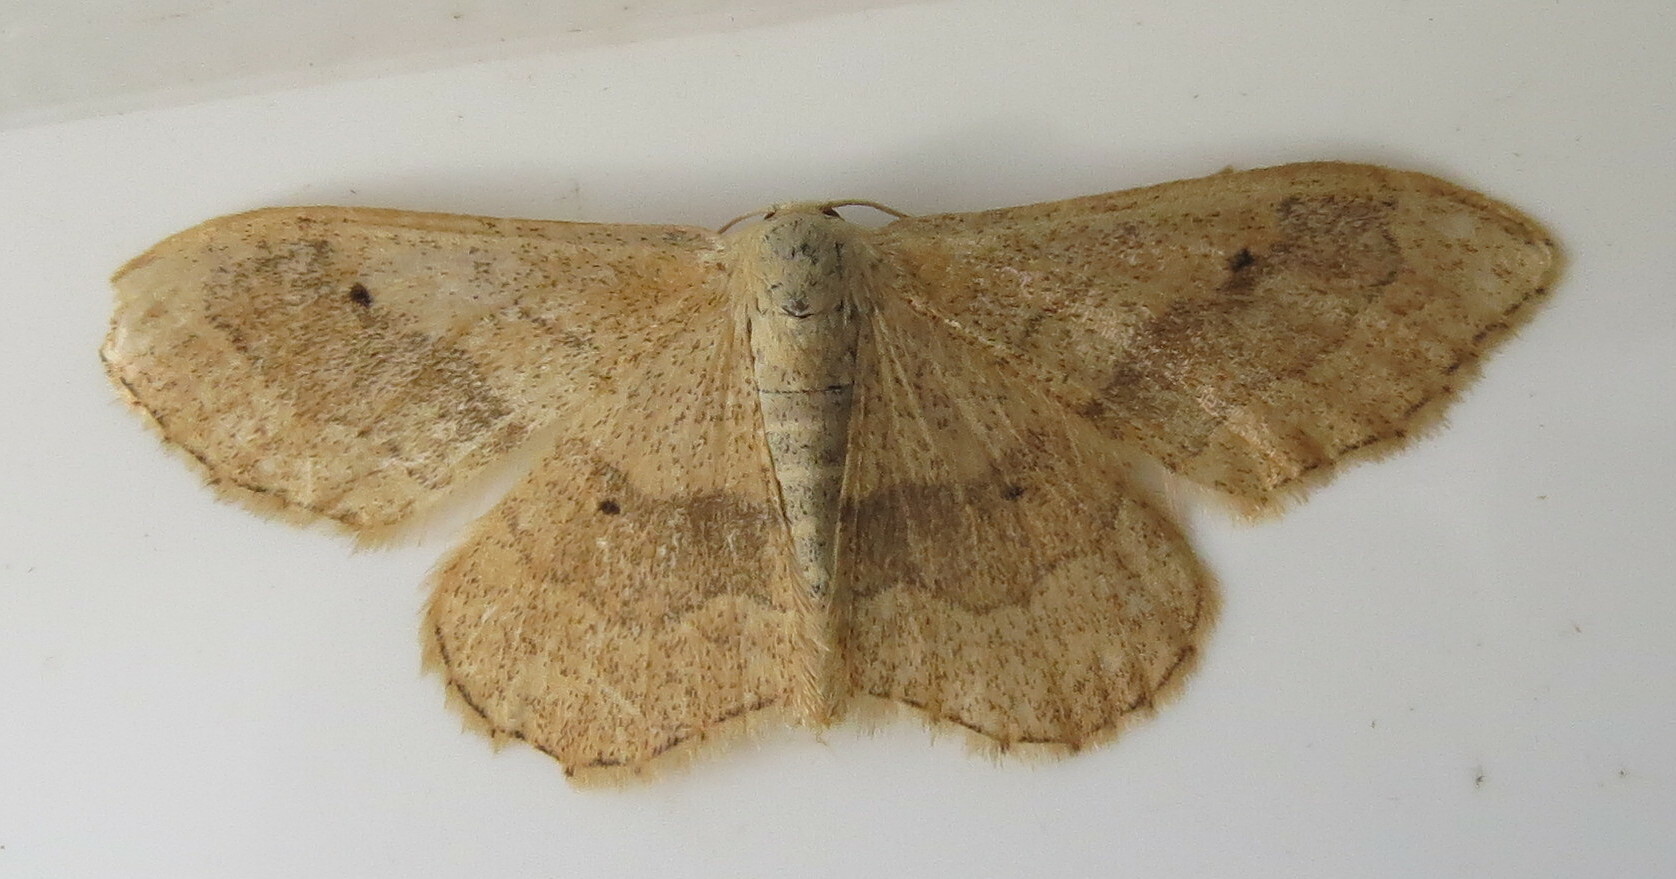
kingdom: Animalia
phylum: Arthropoda
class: Insecta
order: Lepidoptera
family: Geometridae
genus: Idaea
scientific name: Idaea aversata
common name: Riband wave
